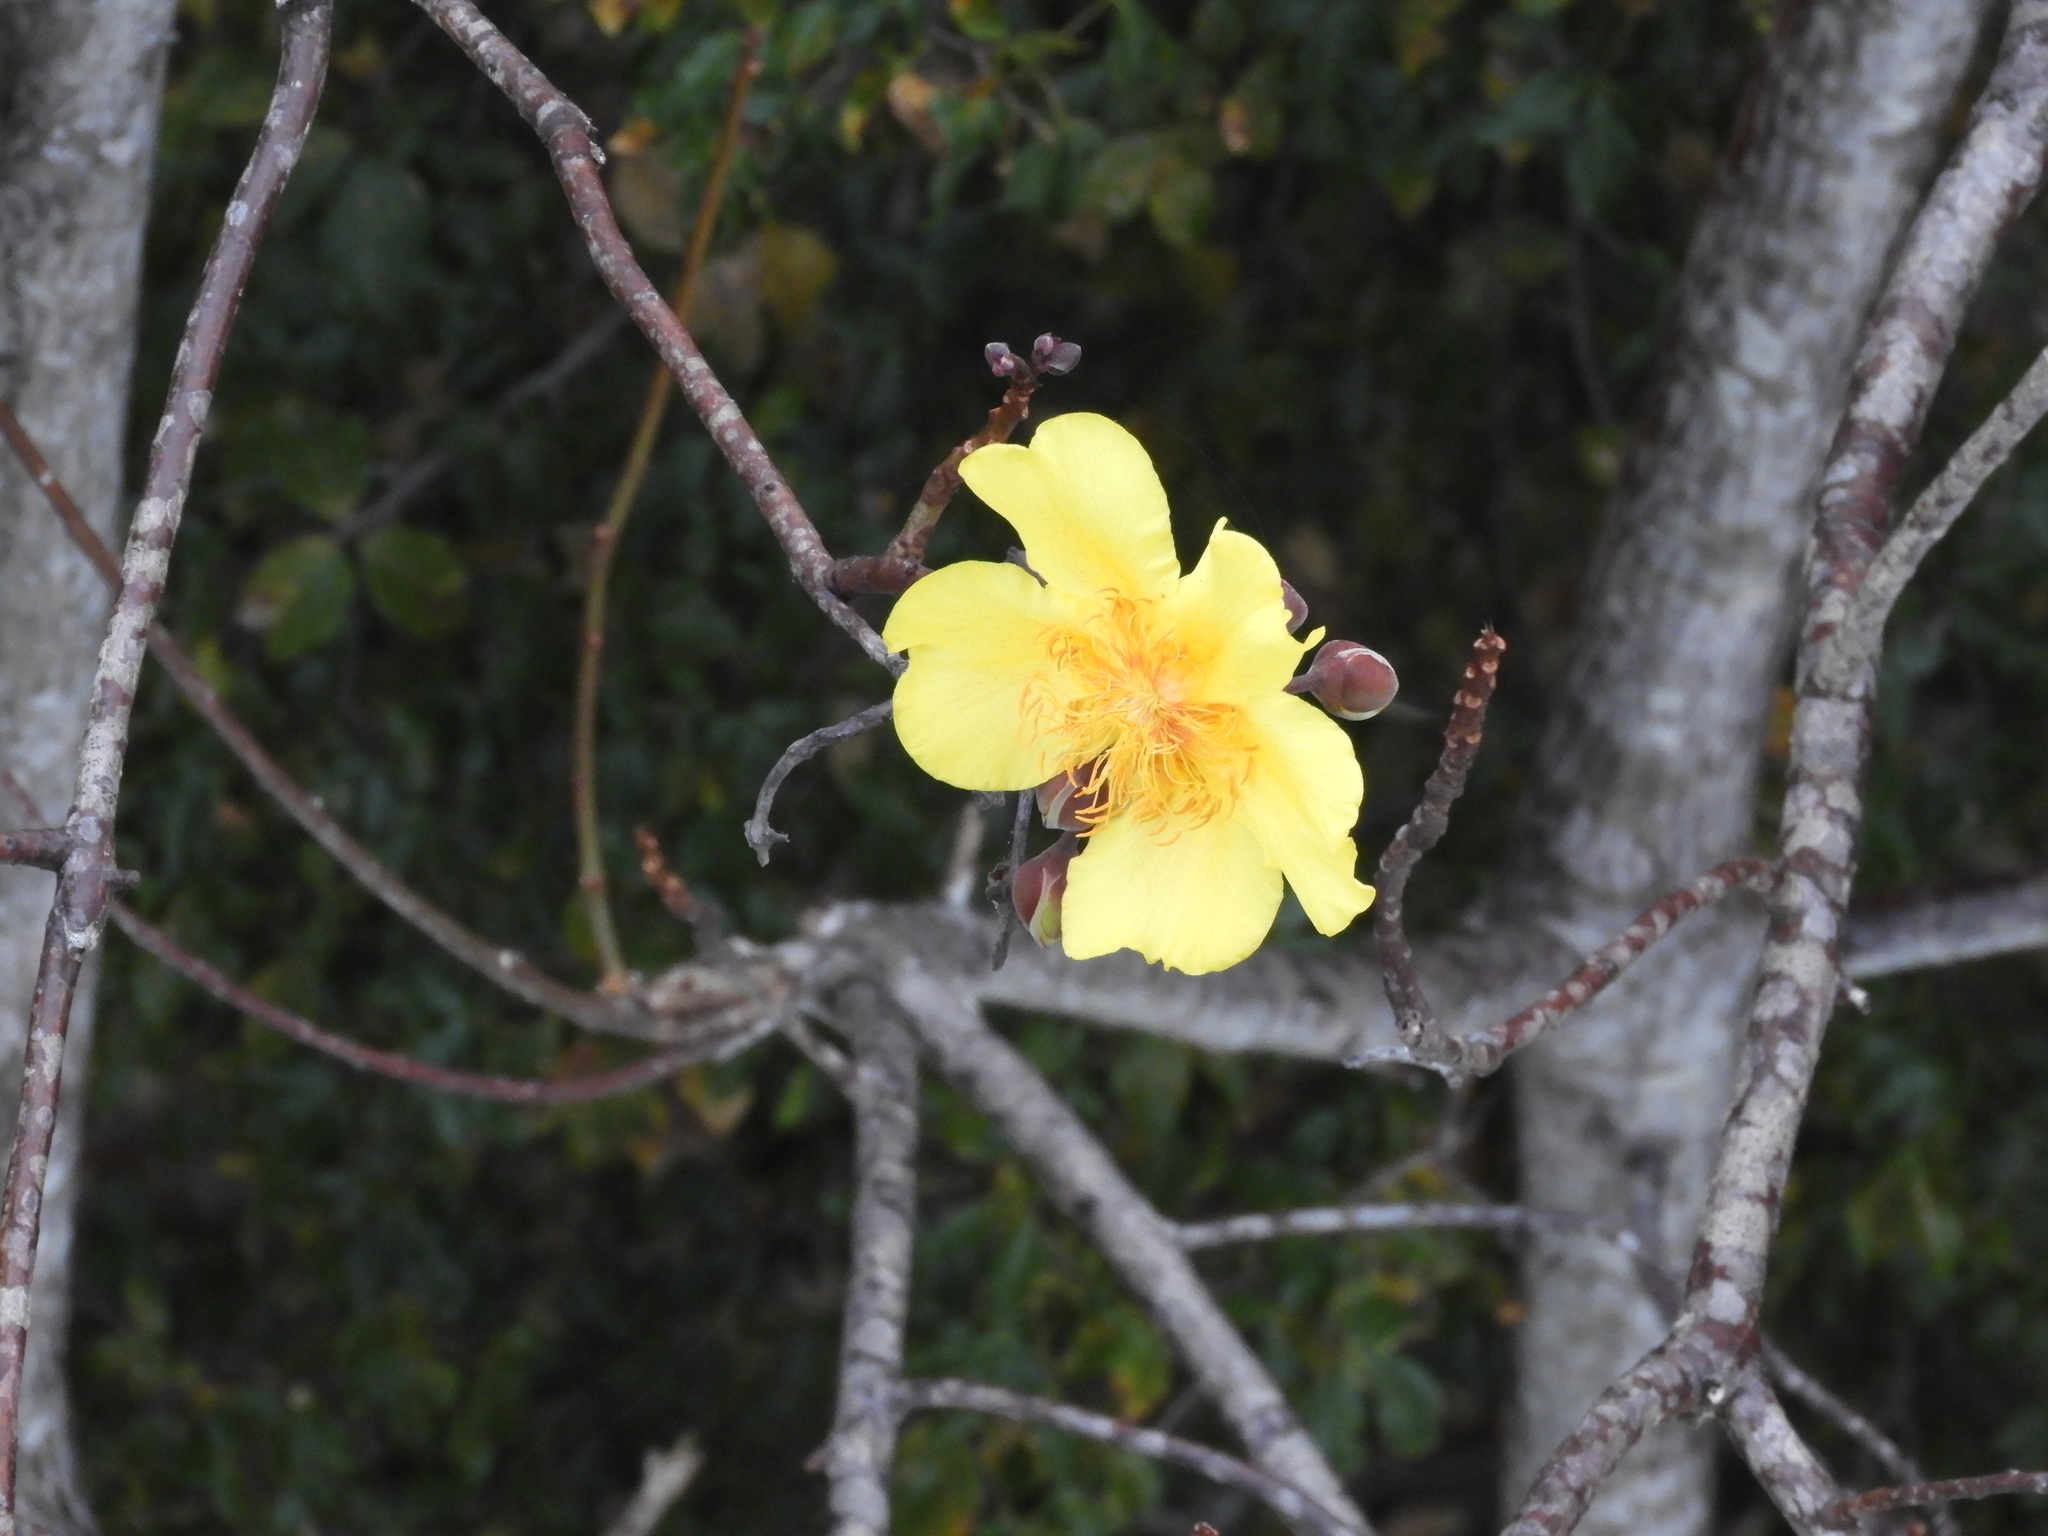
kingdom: Plantae
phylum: Tracheophyta
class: Magnoliopsida
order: Malvales
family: Cochlospermaceae
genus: Cochlospermum
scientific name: Cochlospermum vitifolium
